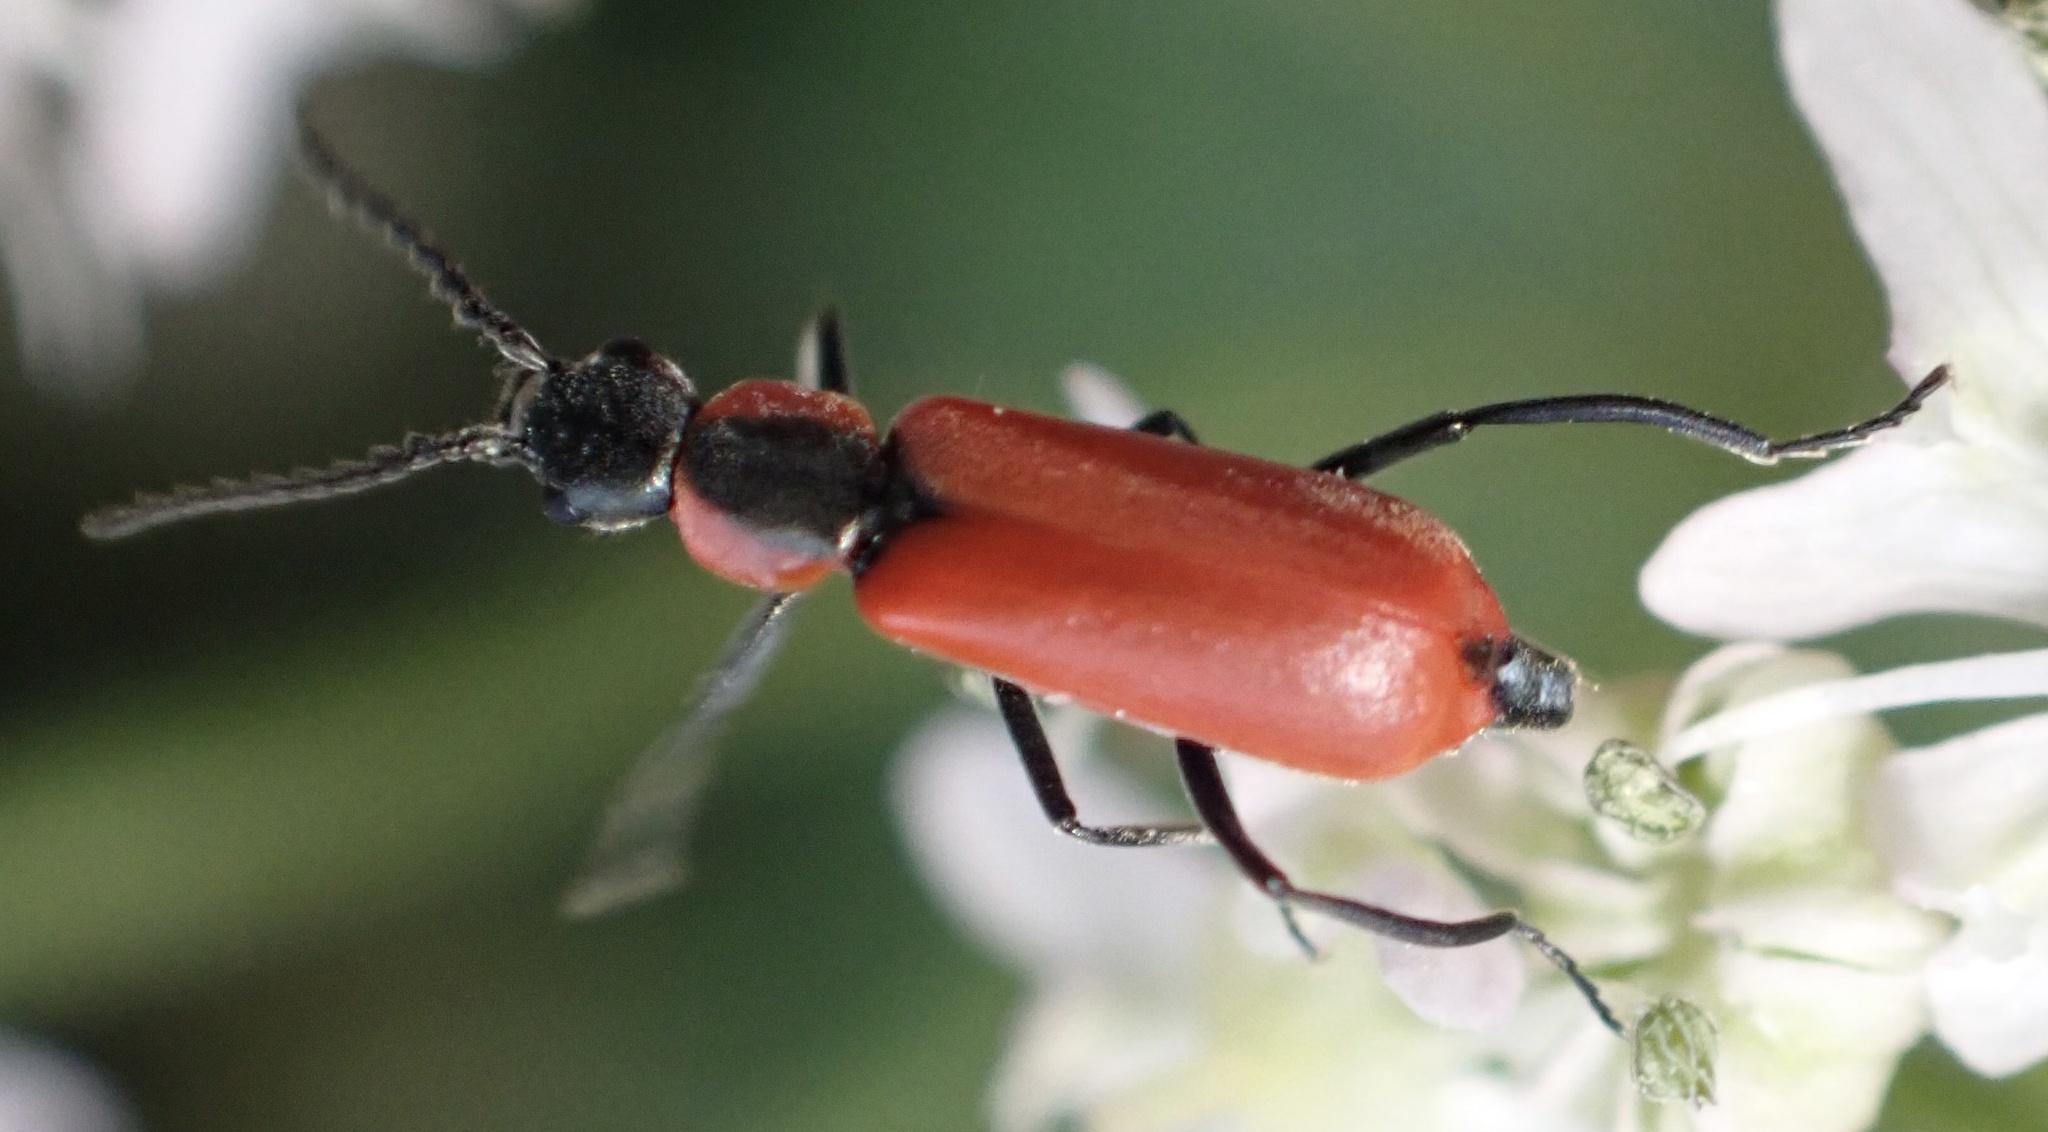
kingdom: Animalia
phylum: Arthropoda
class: Insecta
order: Coleoptera
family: Melyridae
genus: Anthocomus
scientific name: Anthocomus rufus
